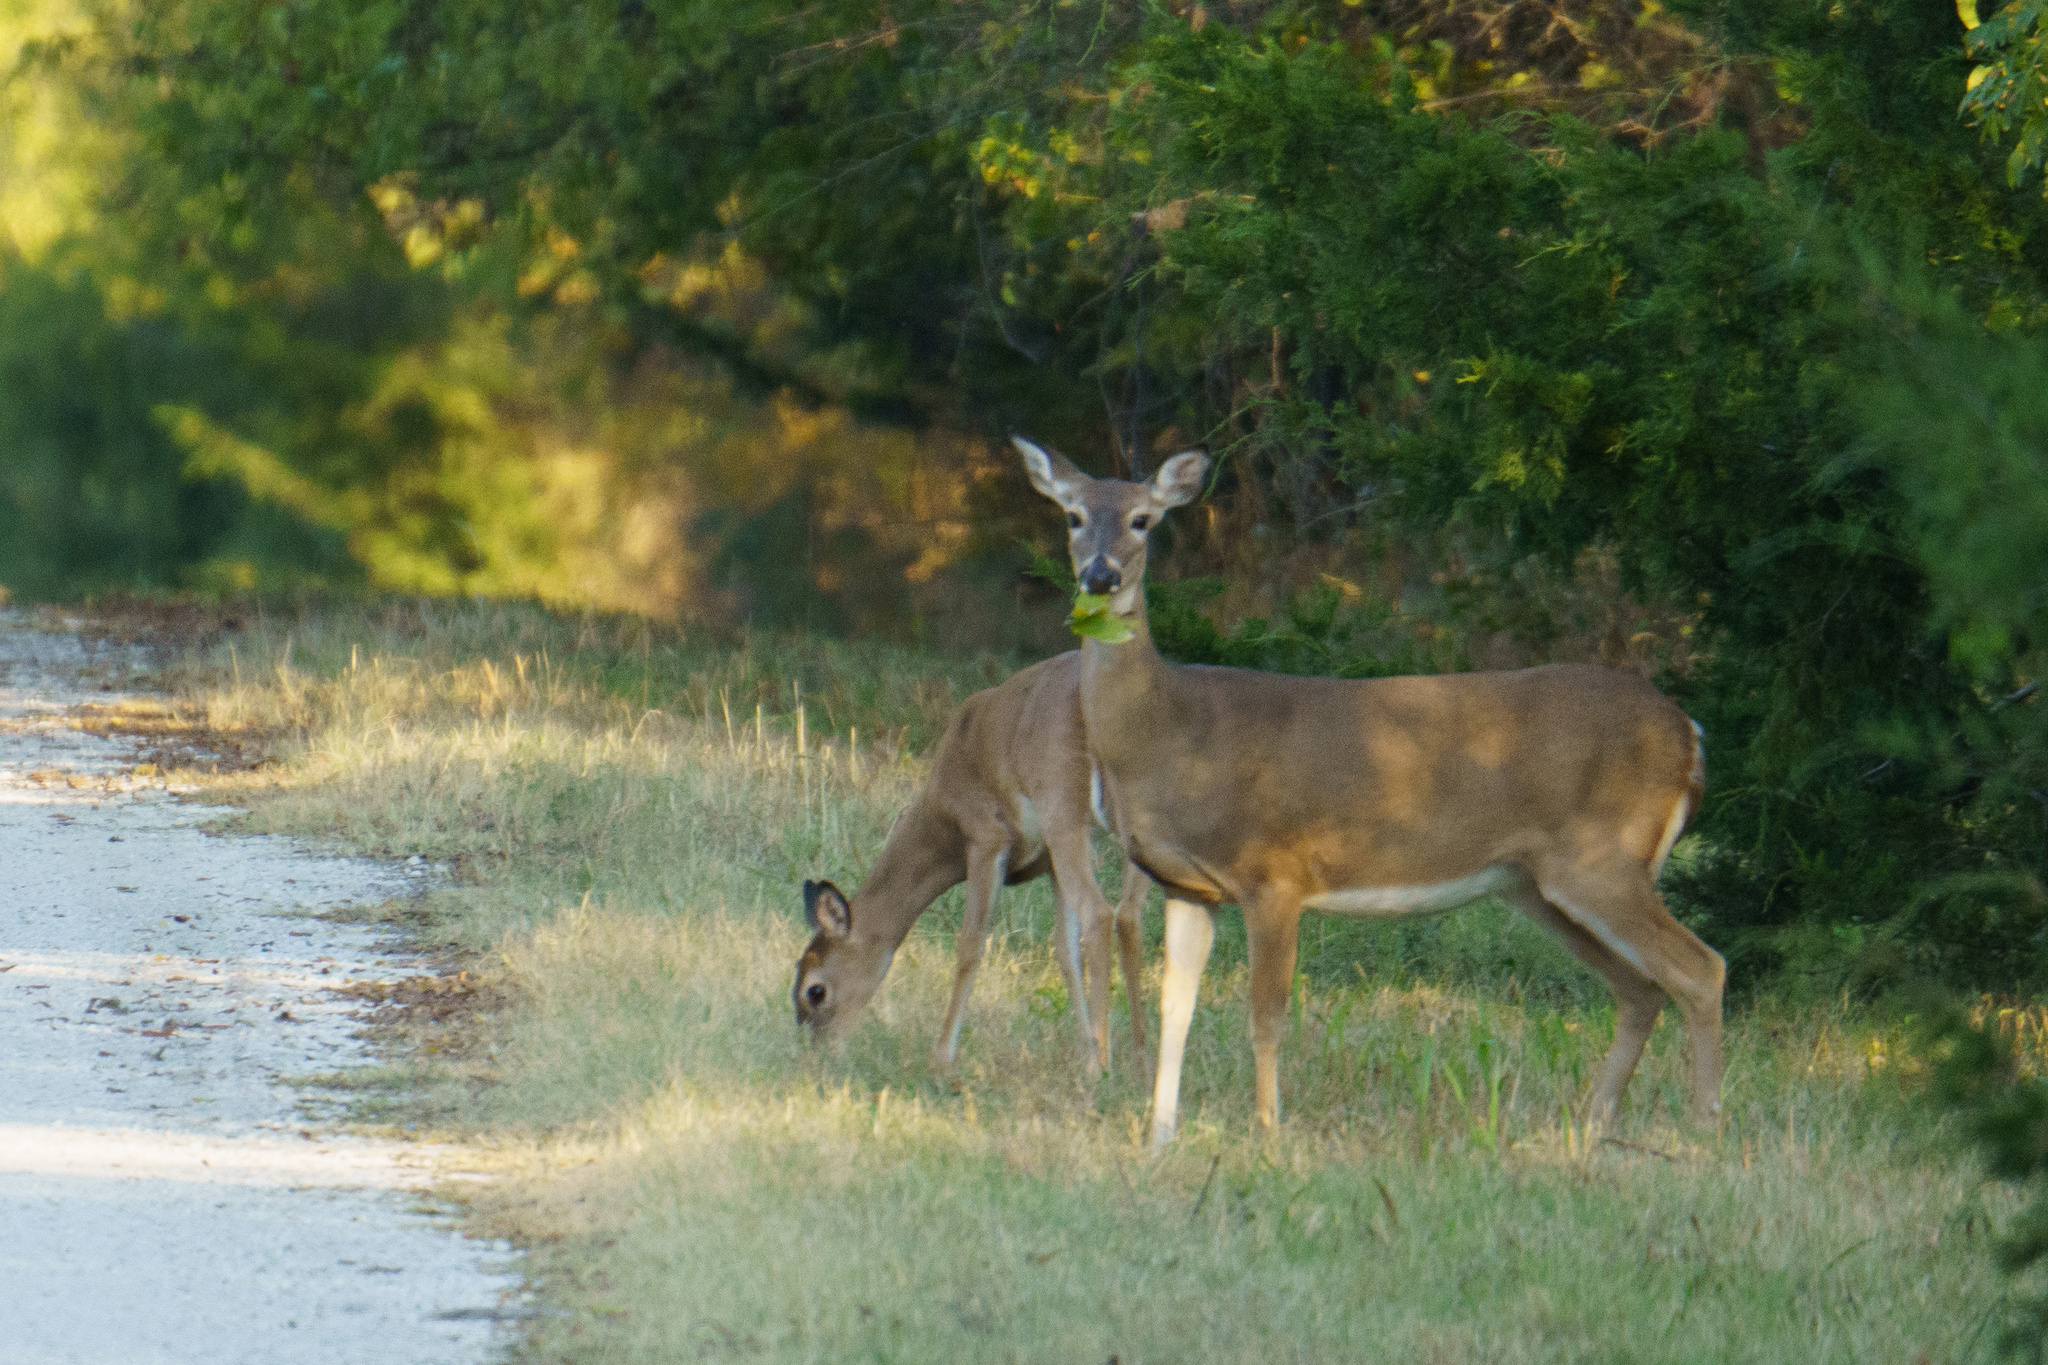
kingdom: Animalia
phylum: Chordata
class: Mammalia
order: Artiodactyla
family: Cervidae
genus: Odocoileus
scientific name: Odocoileus virginianus
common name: White-tailed deer
